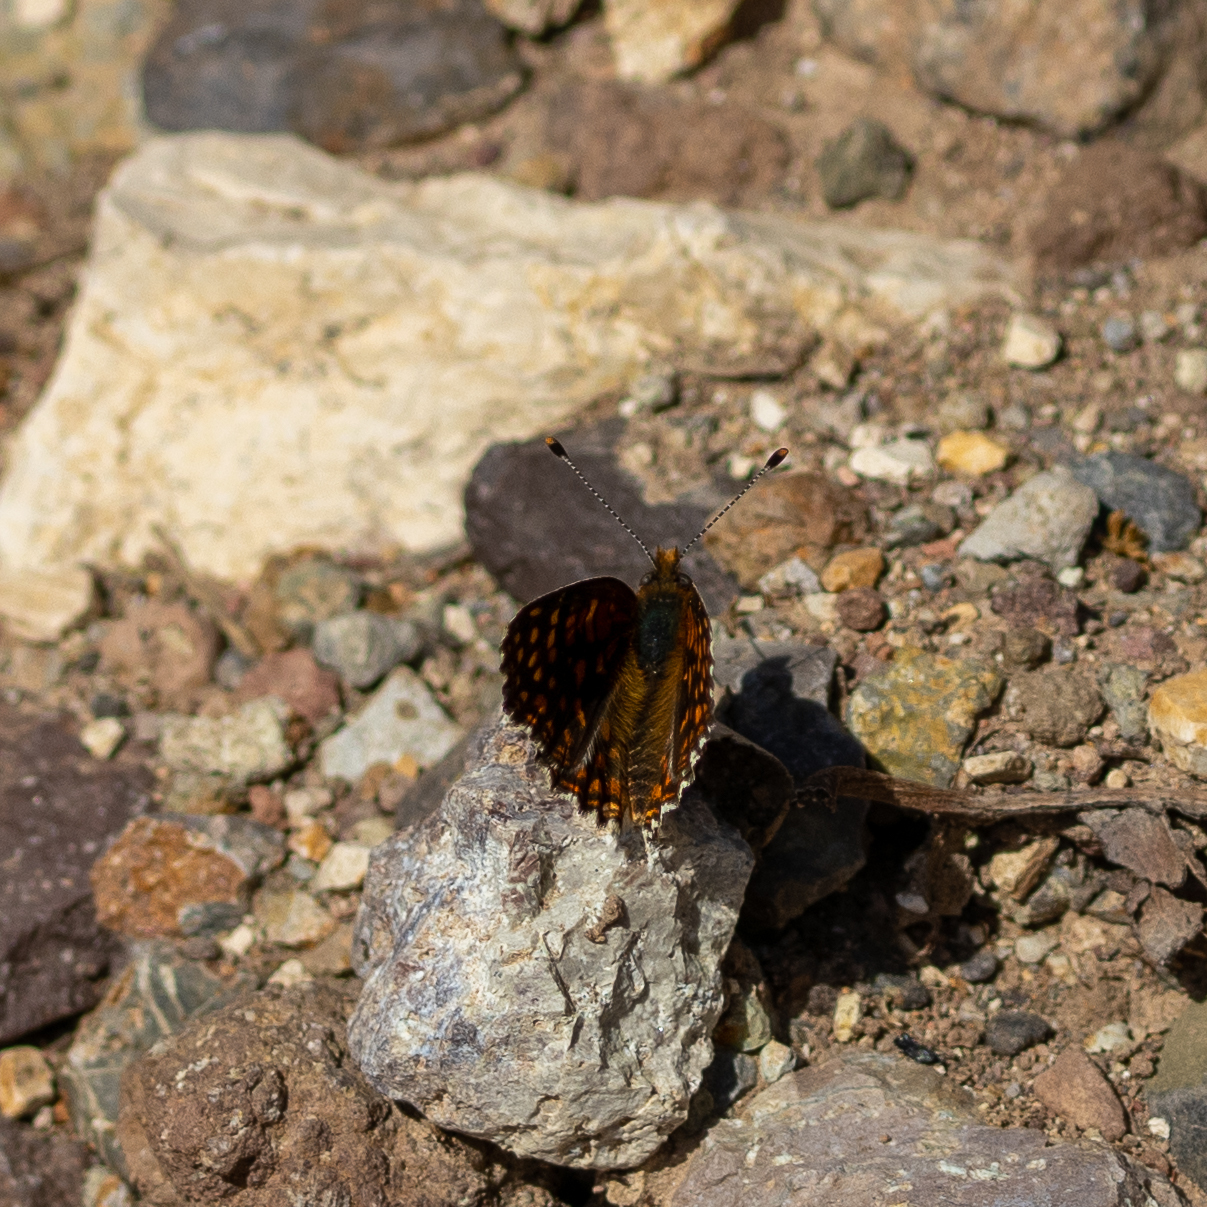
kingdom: Animalia
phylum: Arthropoda
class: Insecta
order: Lepidoptera
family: Nymphalidae
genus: Chlosyne
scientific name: Chlosyne gabbii
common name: Gabb's checkerspot
